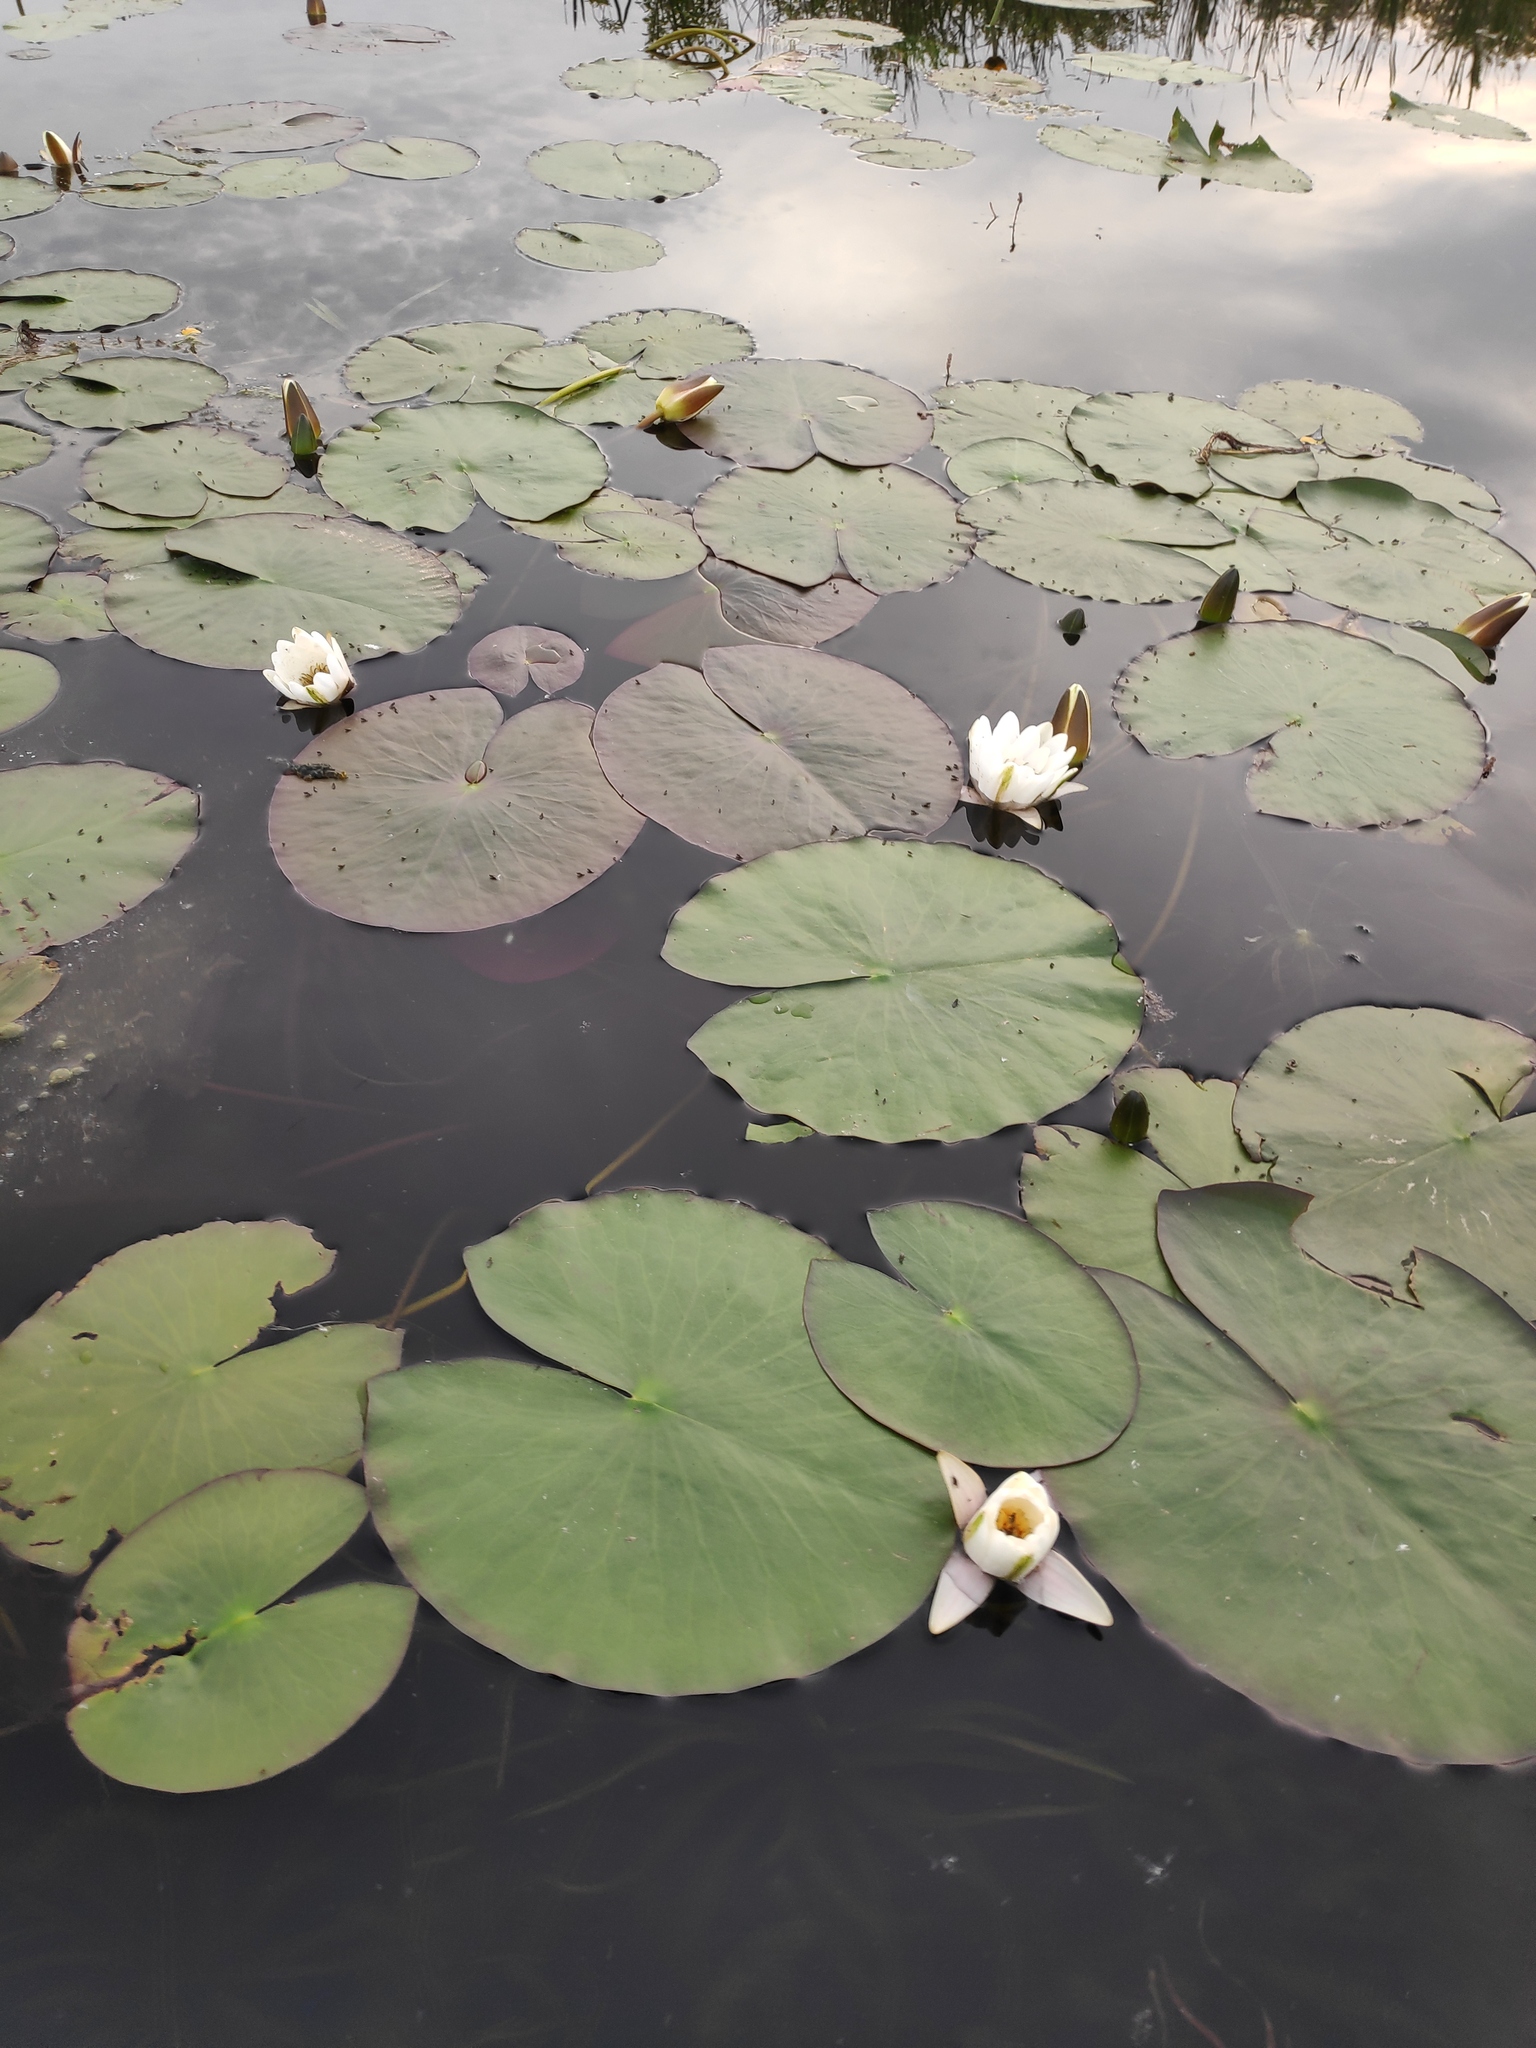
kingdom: Plantae
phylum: Tracheophyta
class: Magnoliopsida
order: Nymphaeales
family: Nymphaeaceae
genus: Nymphaea
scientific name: Nymphaea alba
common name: White water-lily
